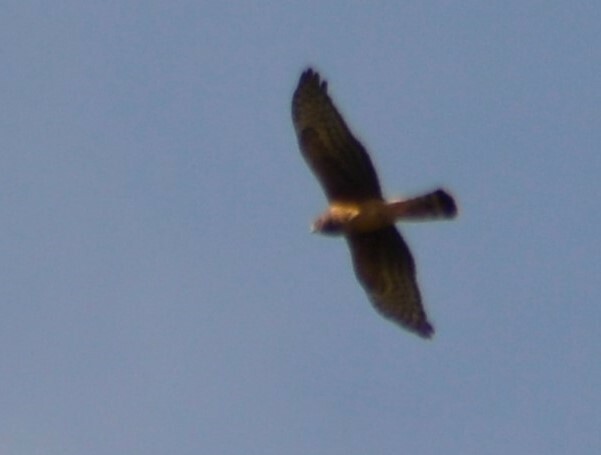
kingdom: Animalia
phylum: Chordata
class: Aves
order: Accipitriformes
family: Accipitridae
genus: Circus
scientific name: Circus cinereus
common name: Cinereous harrier
